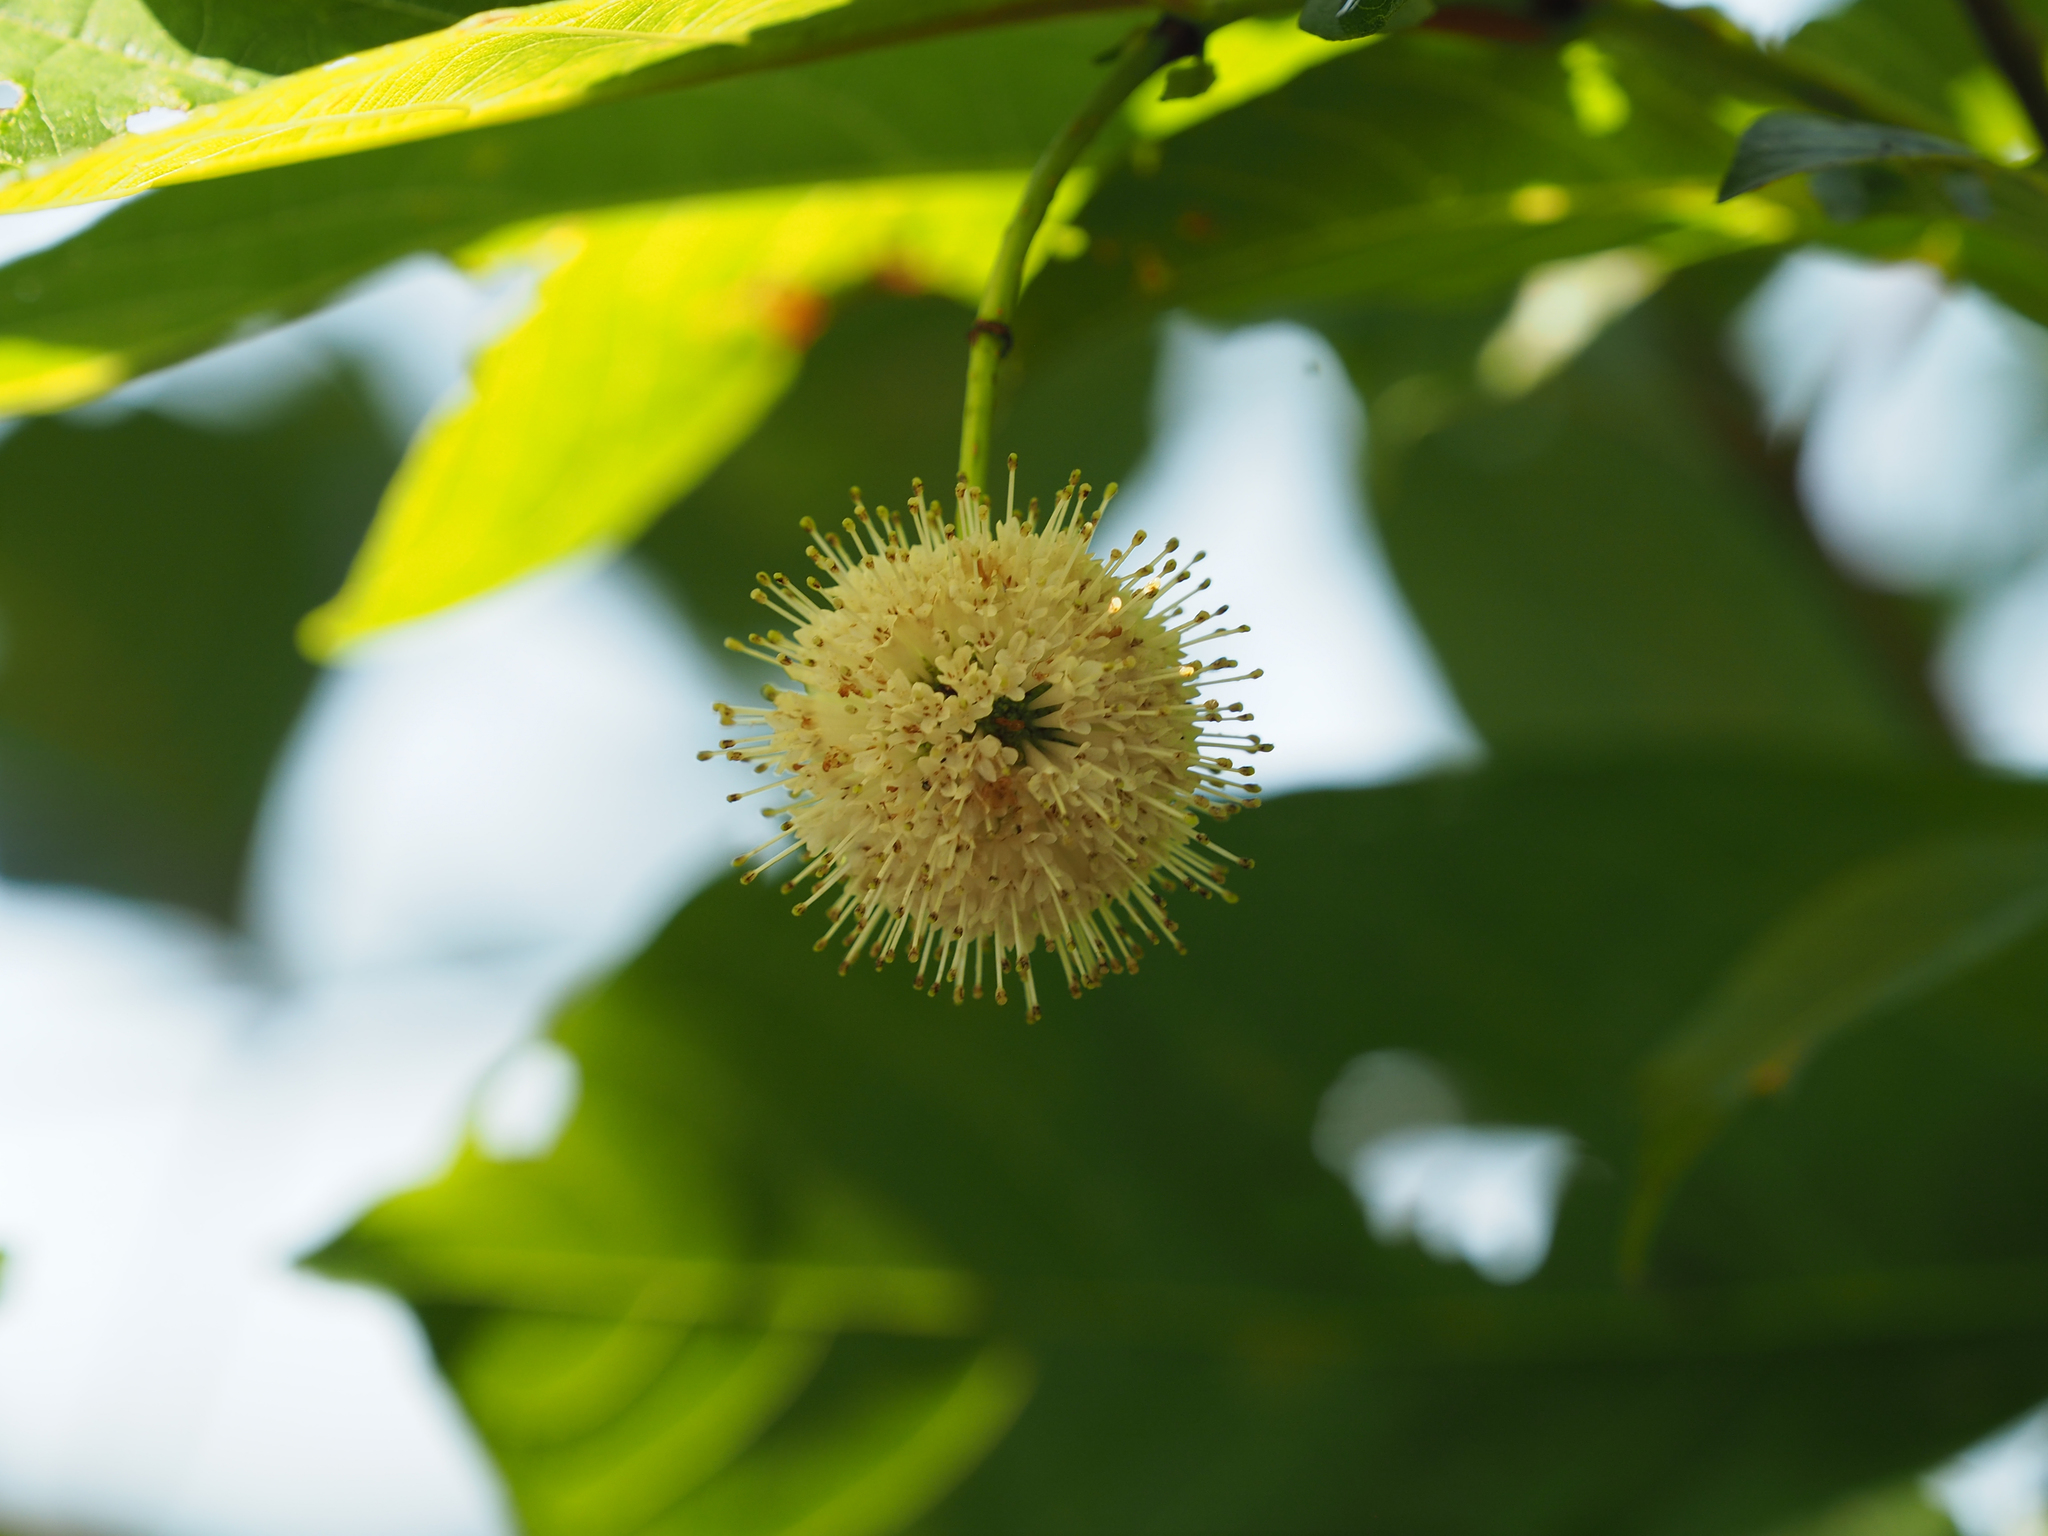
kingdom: Plantae
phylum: Tracheophyta
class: Magnoliopsida
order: Gentianales
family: Rubiaceae
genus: Cephalanthus
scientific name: Cephalanthus occidentalis
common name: Button-willow
